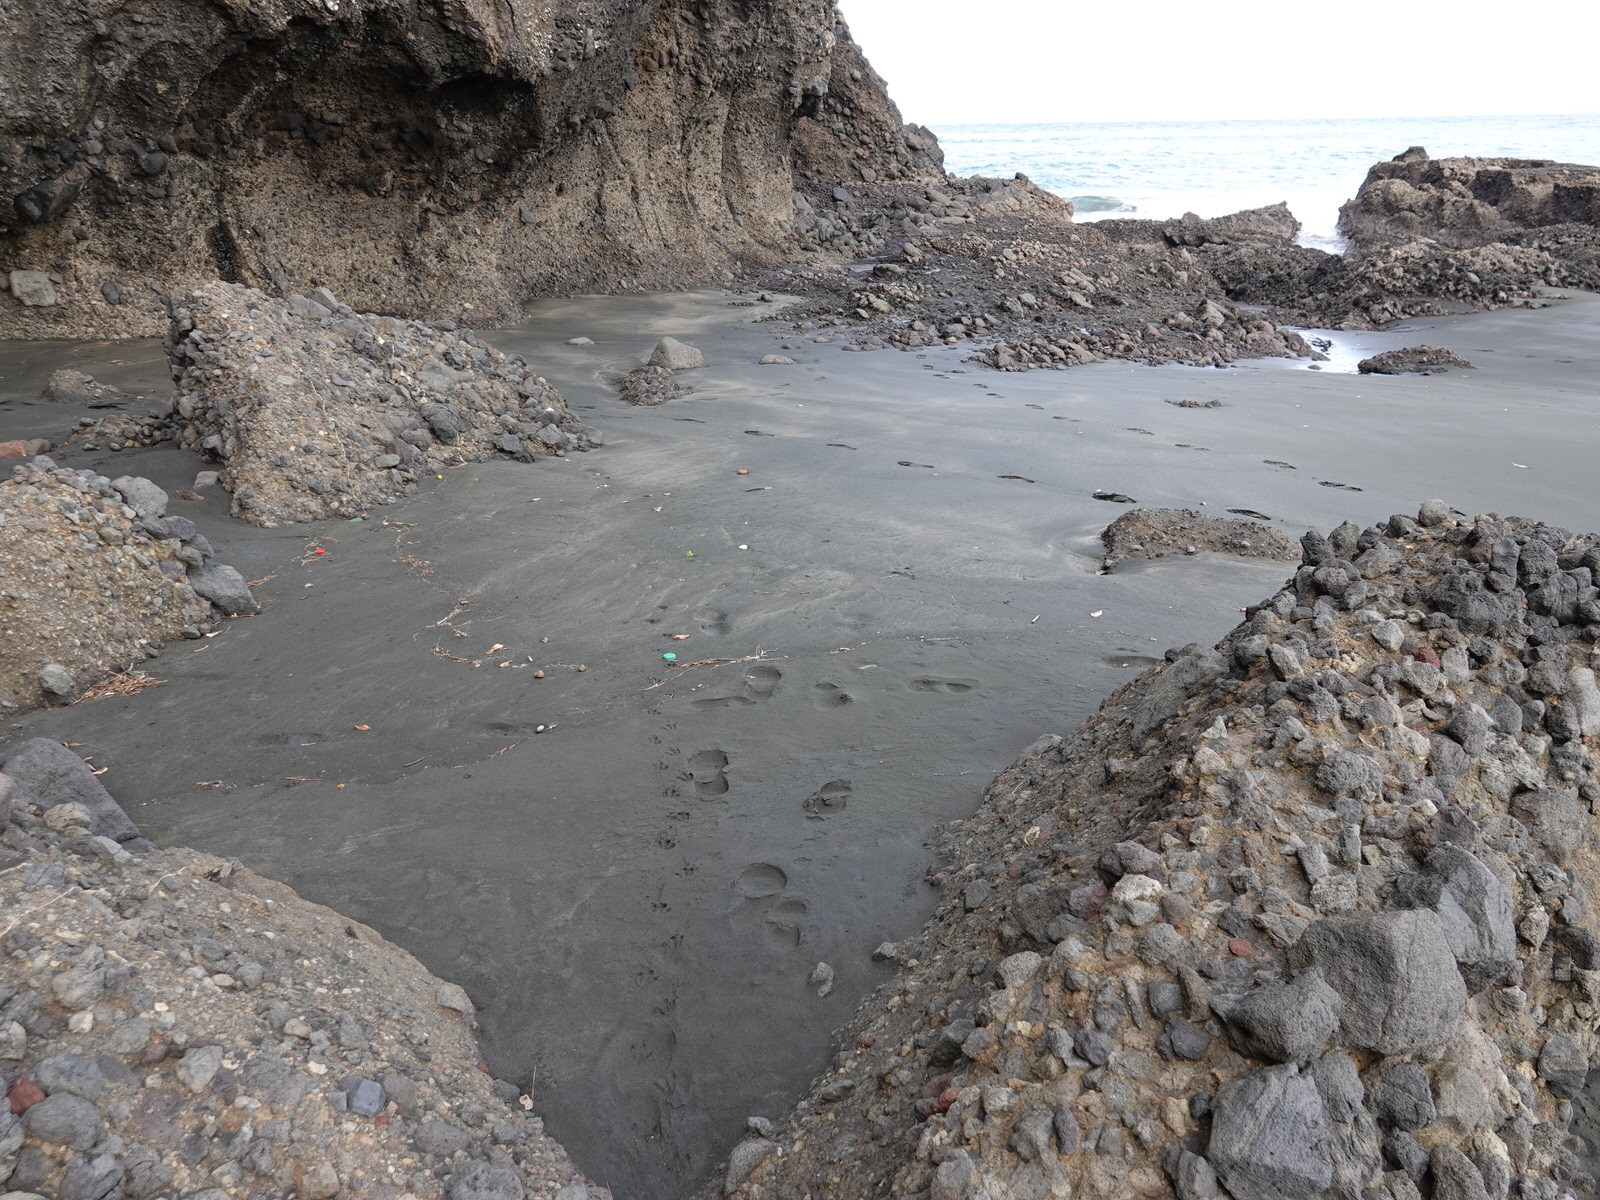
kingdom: Animalia
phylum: Chordata
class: Aves
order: Sphenisciformes
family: Spheniscidae
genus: Eudyptula
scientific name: Eudyptula minor
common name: Little penguin
